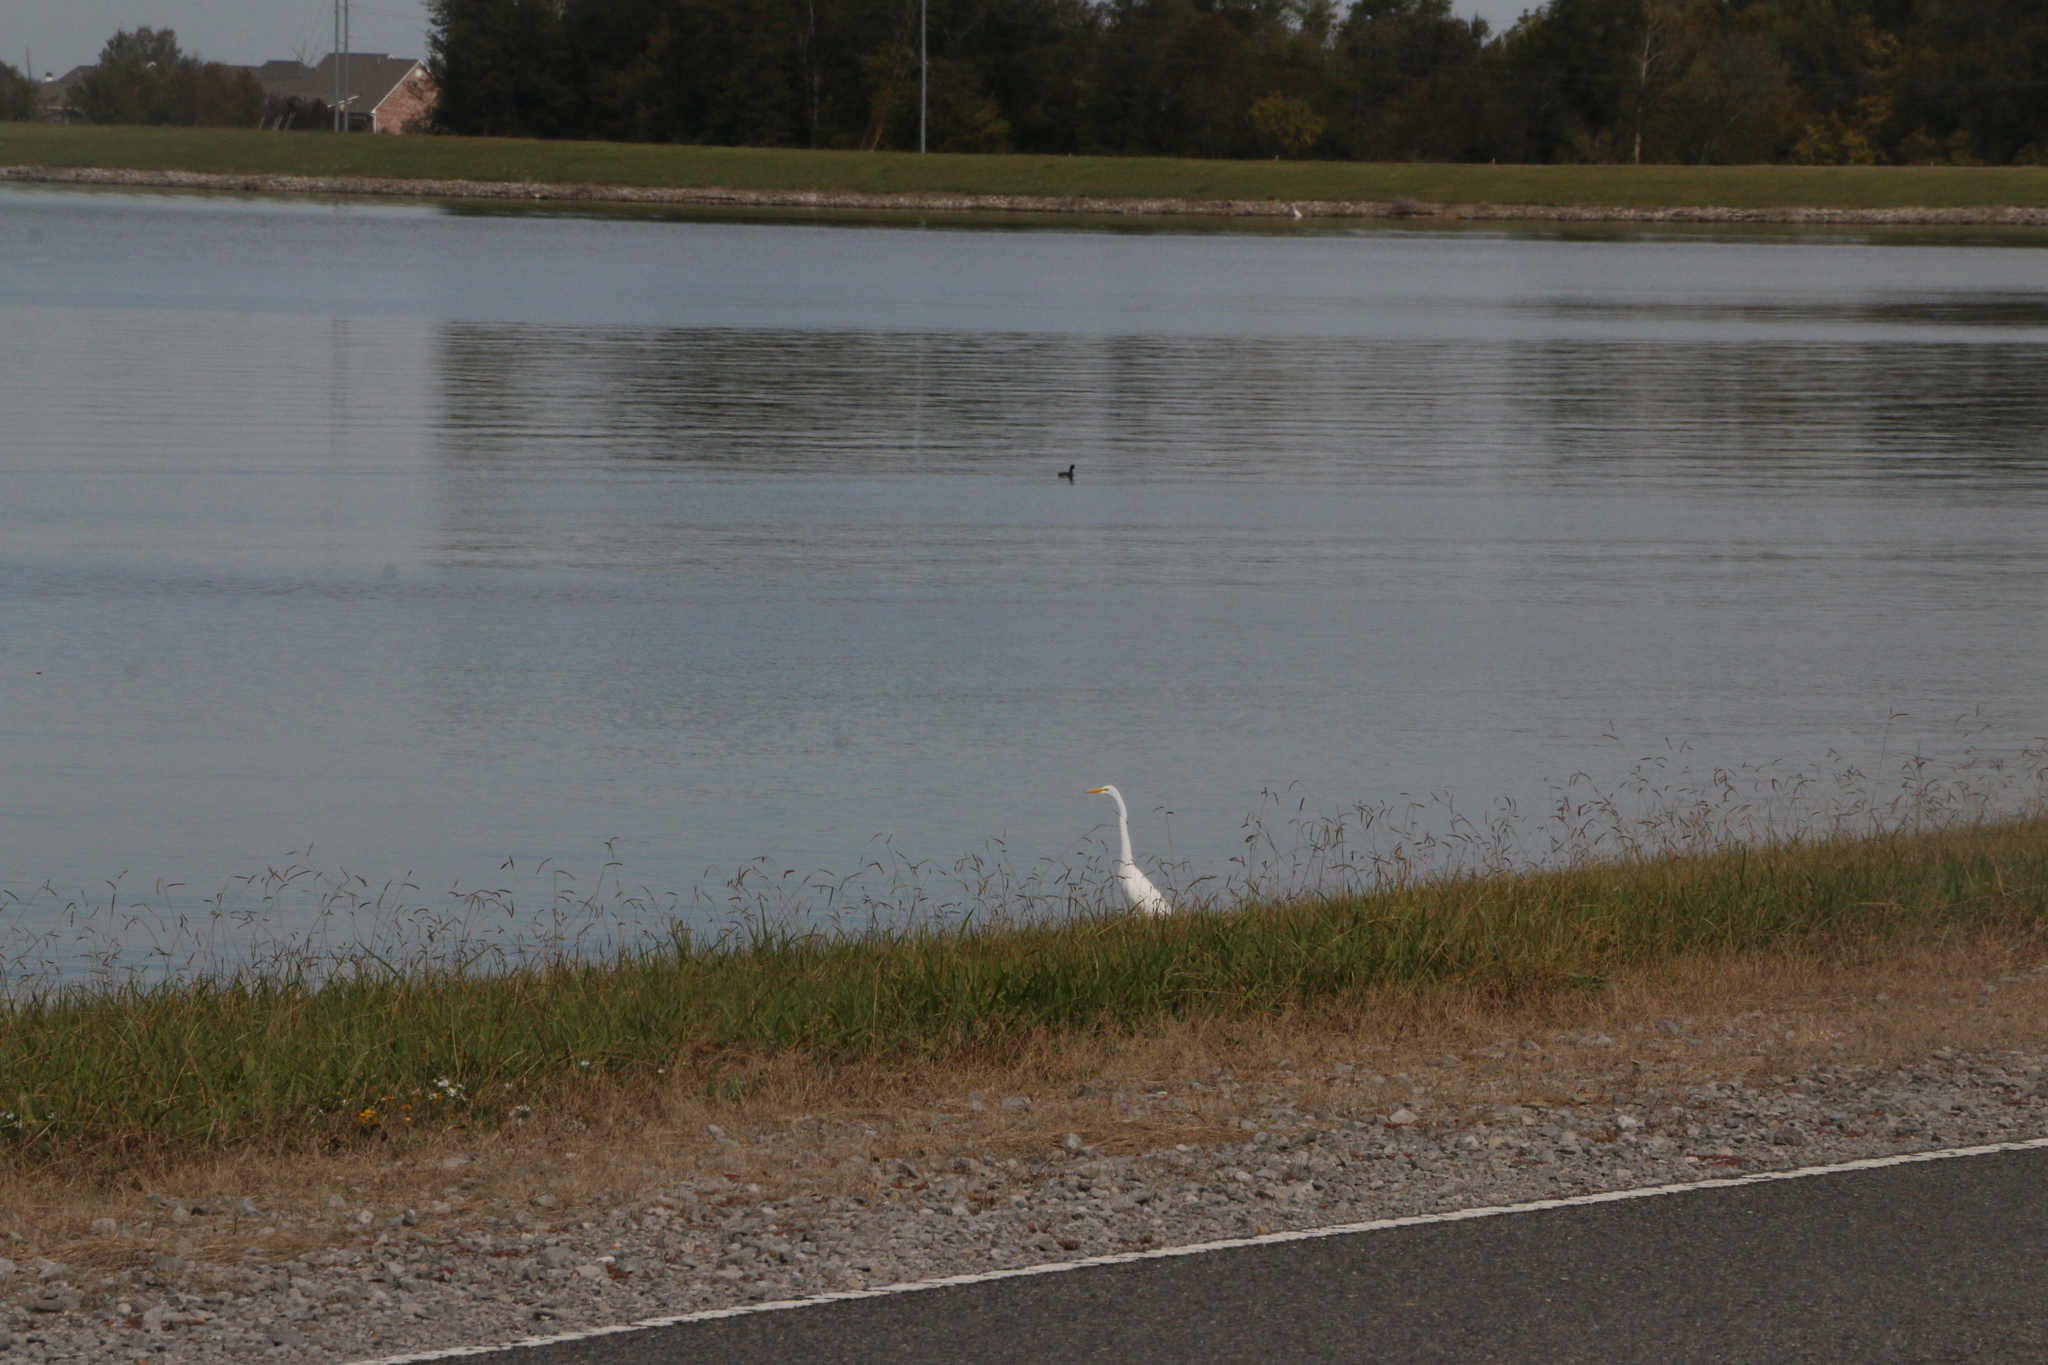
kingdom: Animalia
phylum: Chordata
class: Aves
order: Pelecaniformes
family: Ardeidae
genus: Ardea
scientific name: Ardea alba
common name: Great egret
